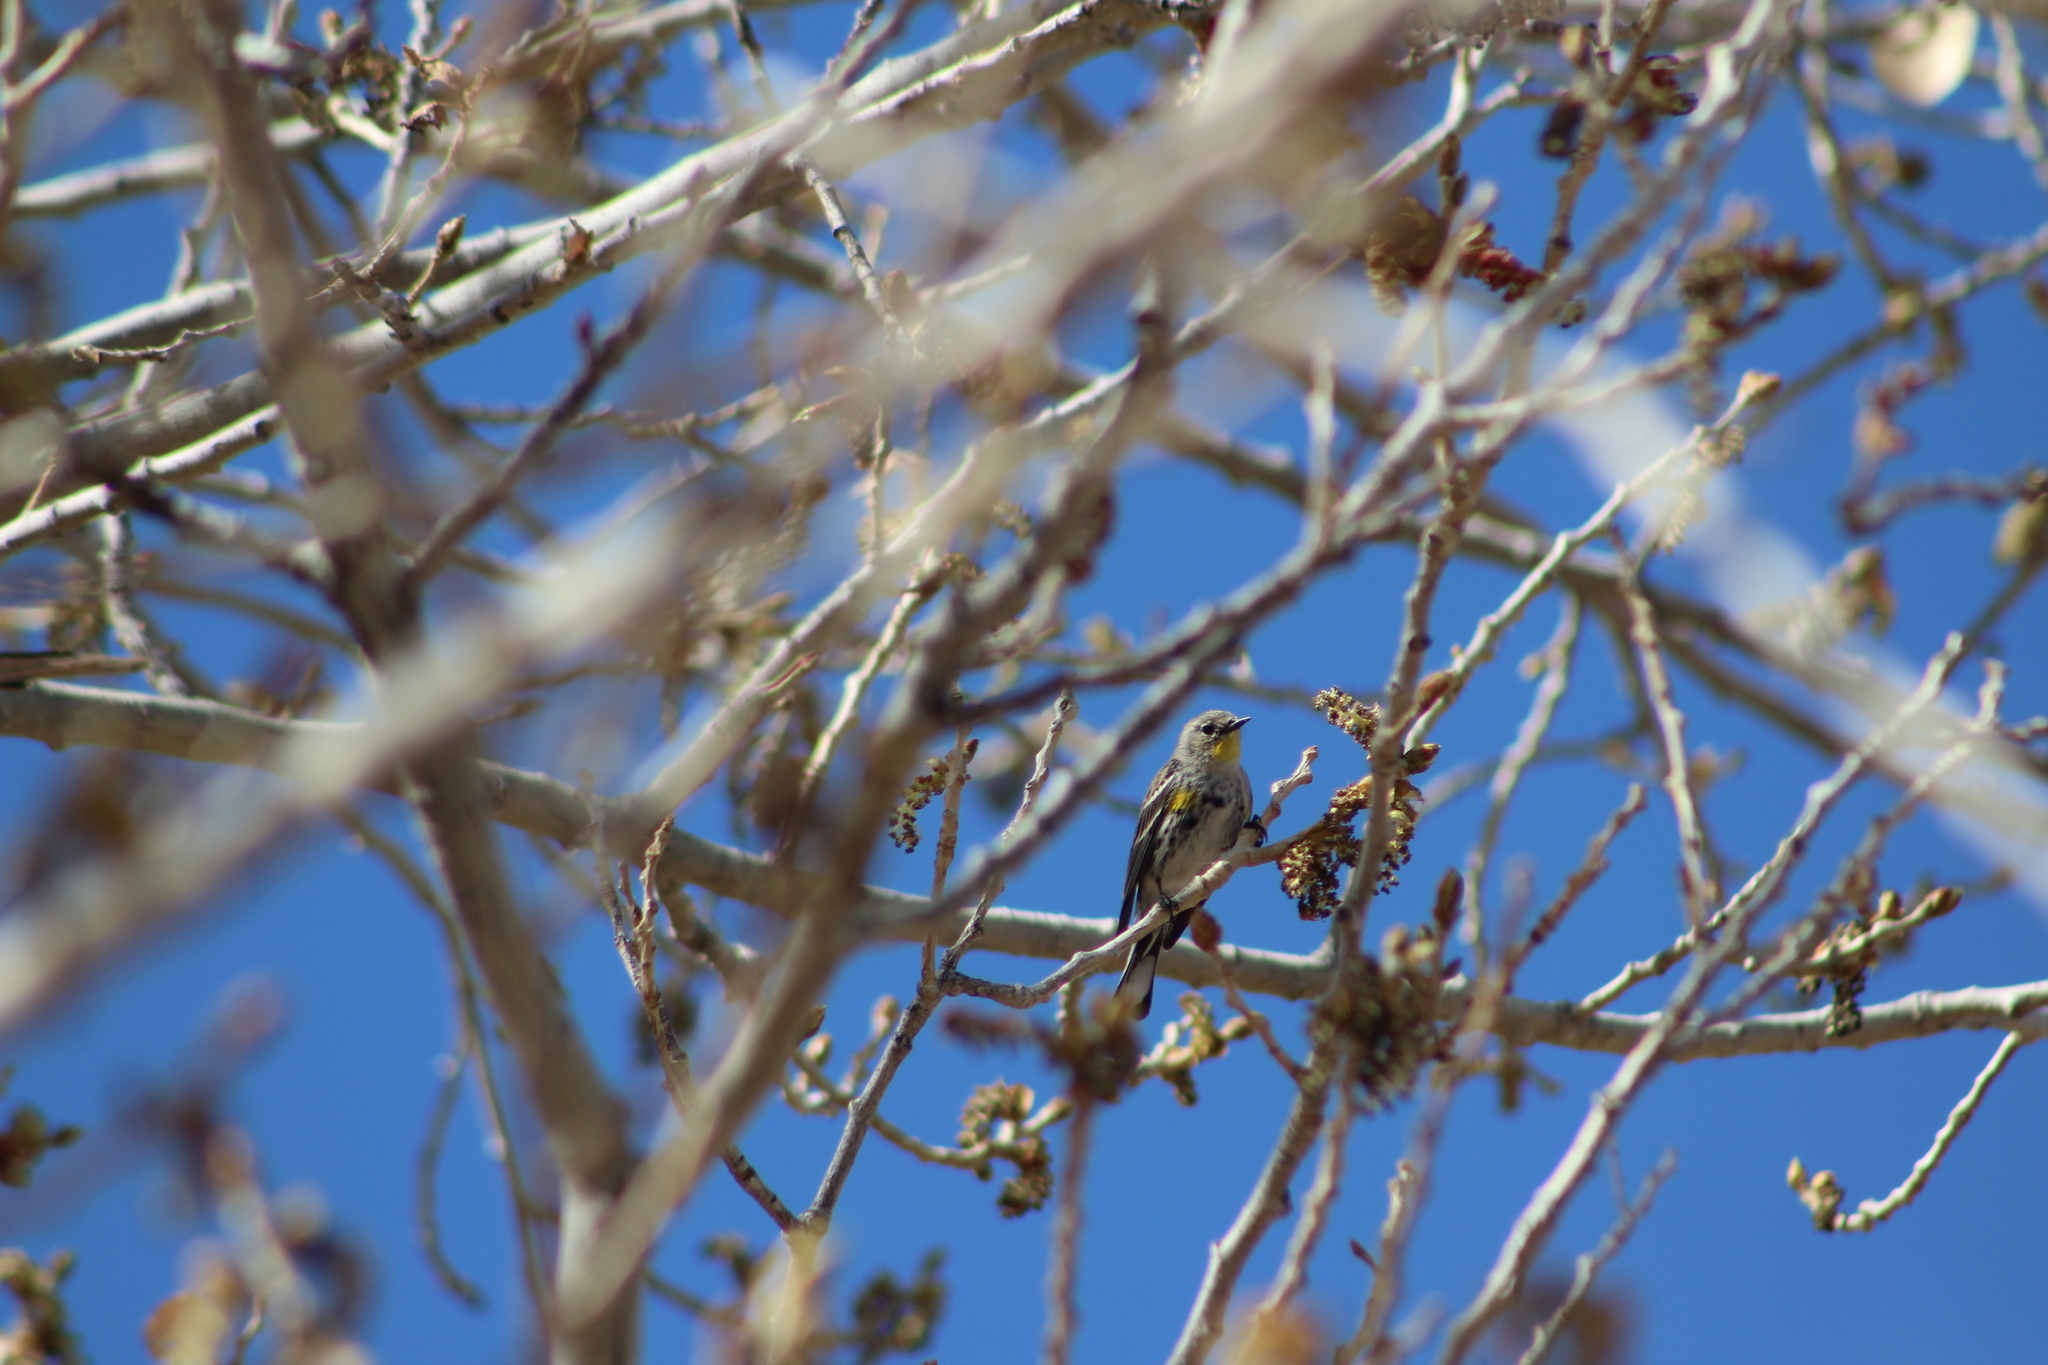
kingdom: Animalia
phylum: Chordata
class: Aves
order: Passeriformes
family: Parulidae
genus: Setophaga
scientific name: Setophaga coronata
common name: Myrtle warbler
